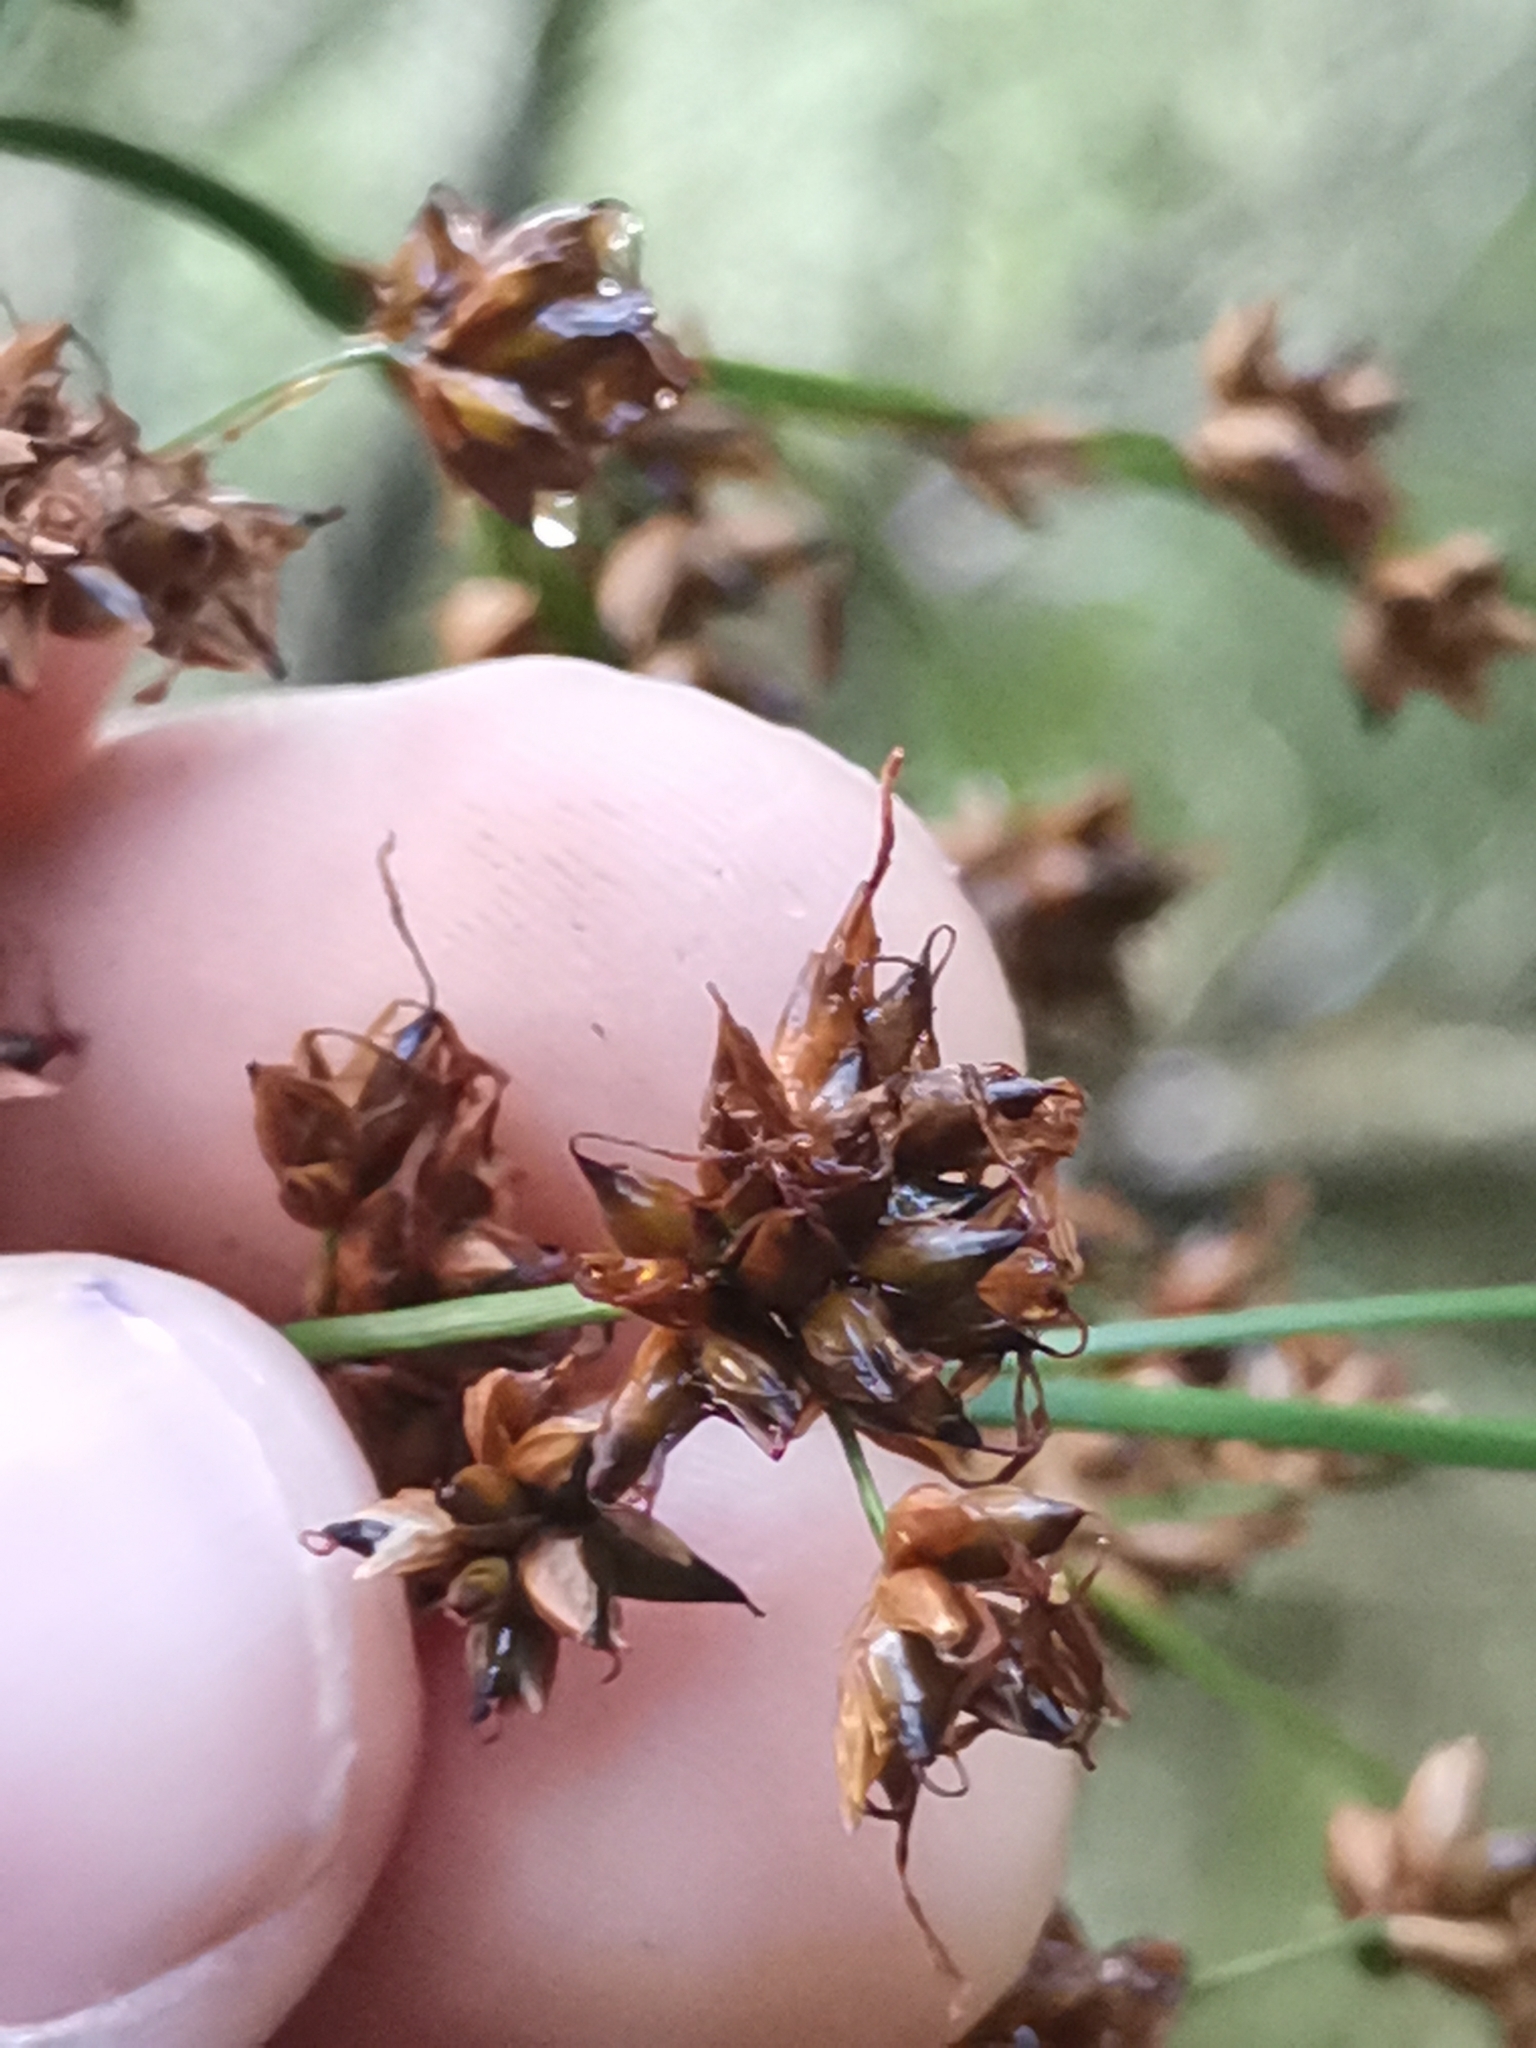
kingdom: Plantae
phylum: Tracheophyta
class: Liliopsida
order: Poales
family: Cyperaceae
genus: Cladium
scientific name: Cladium mariscus
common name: Great fen-sedge
